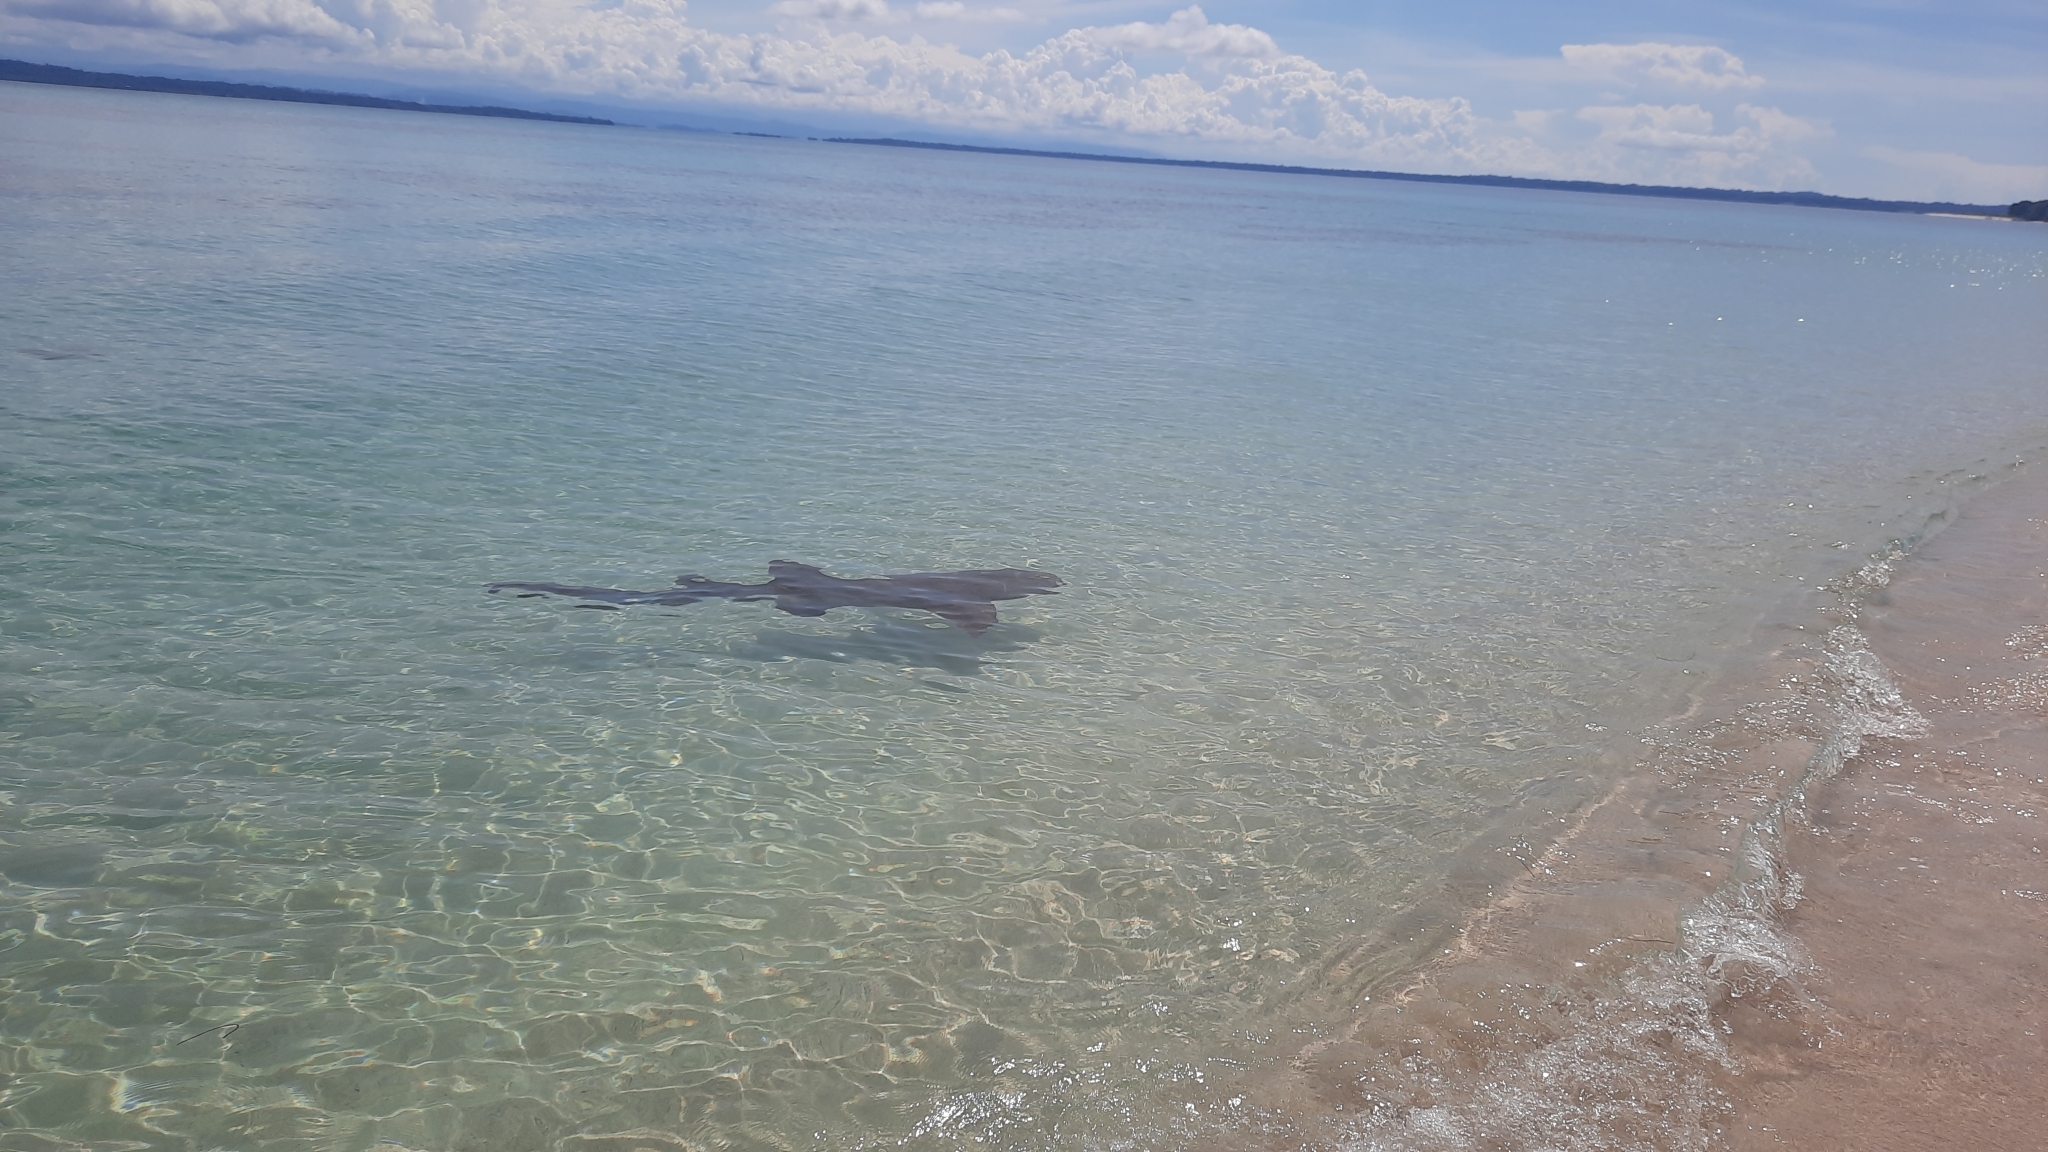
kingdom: Animalia
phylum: Chordata
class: Elasmobranchii
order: Orectolobiformes
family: Ginglymostomatidae
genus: Ginglymostoma
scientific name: Ginglymostoma cirratum
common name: Nurse shark
